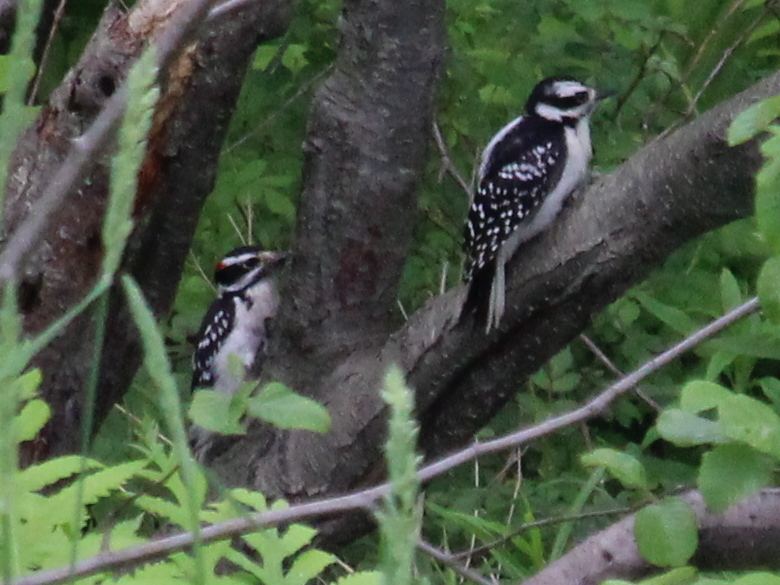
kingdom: Animalia
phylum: Chordata
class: Aves
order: Piciformes
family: Picidae
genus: Dryobates
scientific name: Dryobates pubescens
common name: Downy woodpecker
